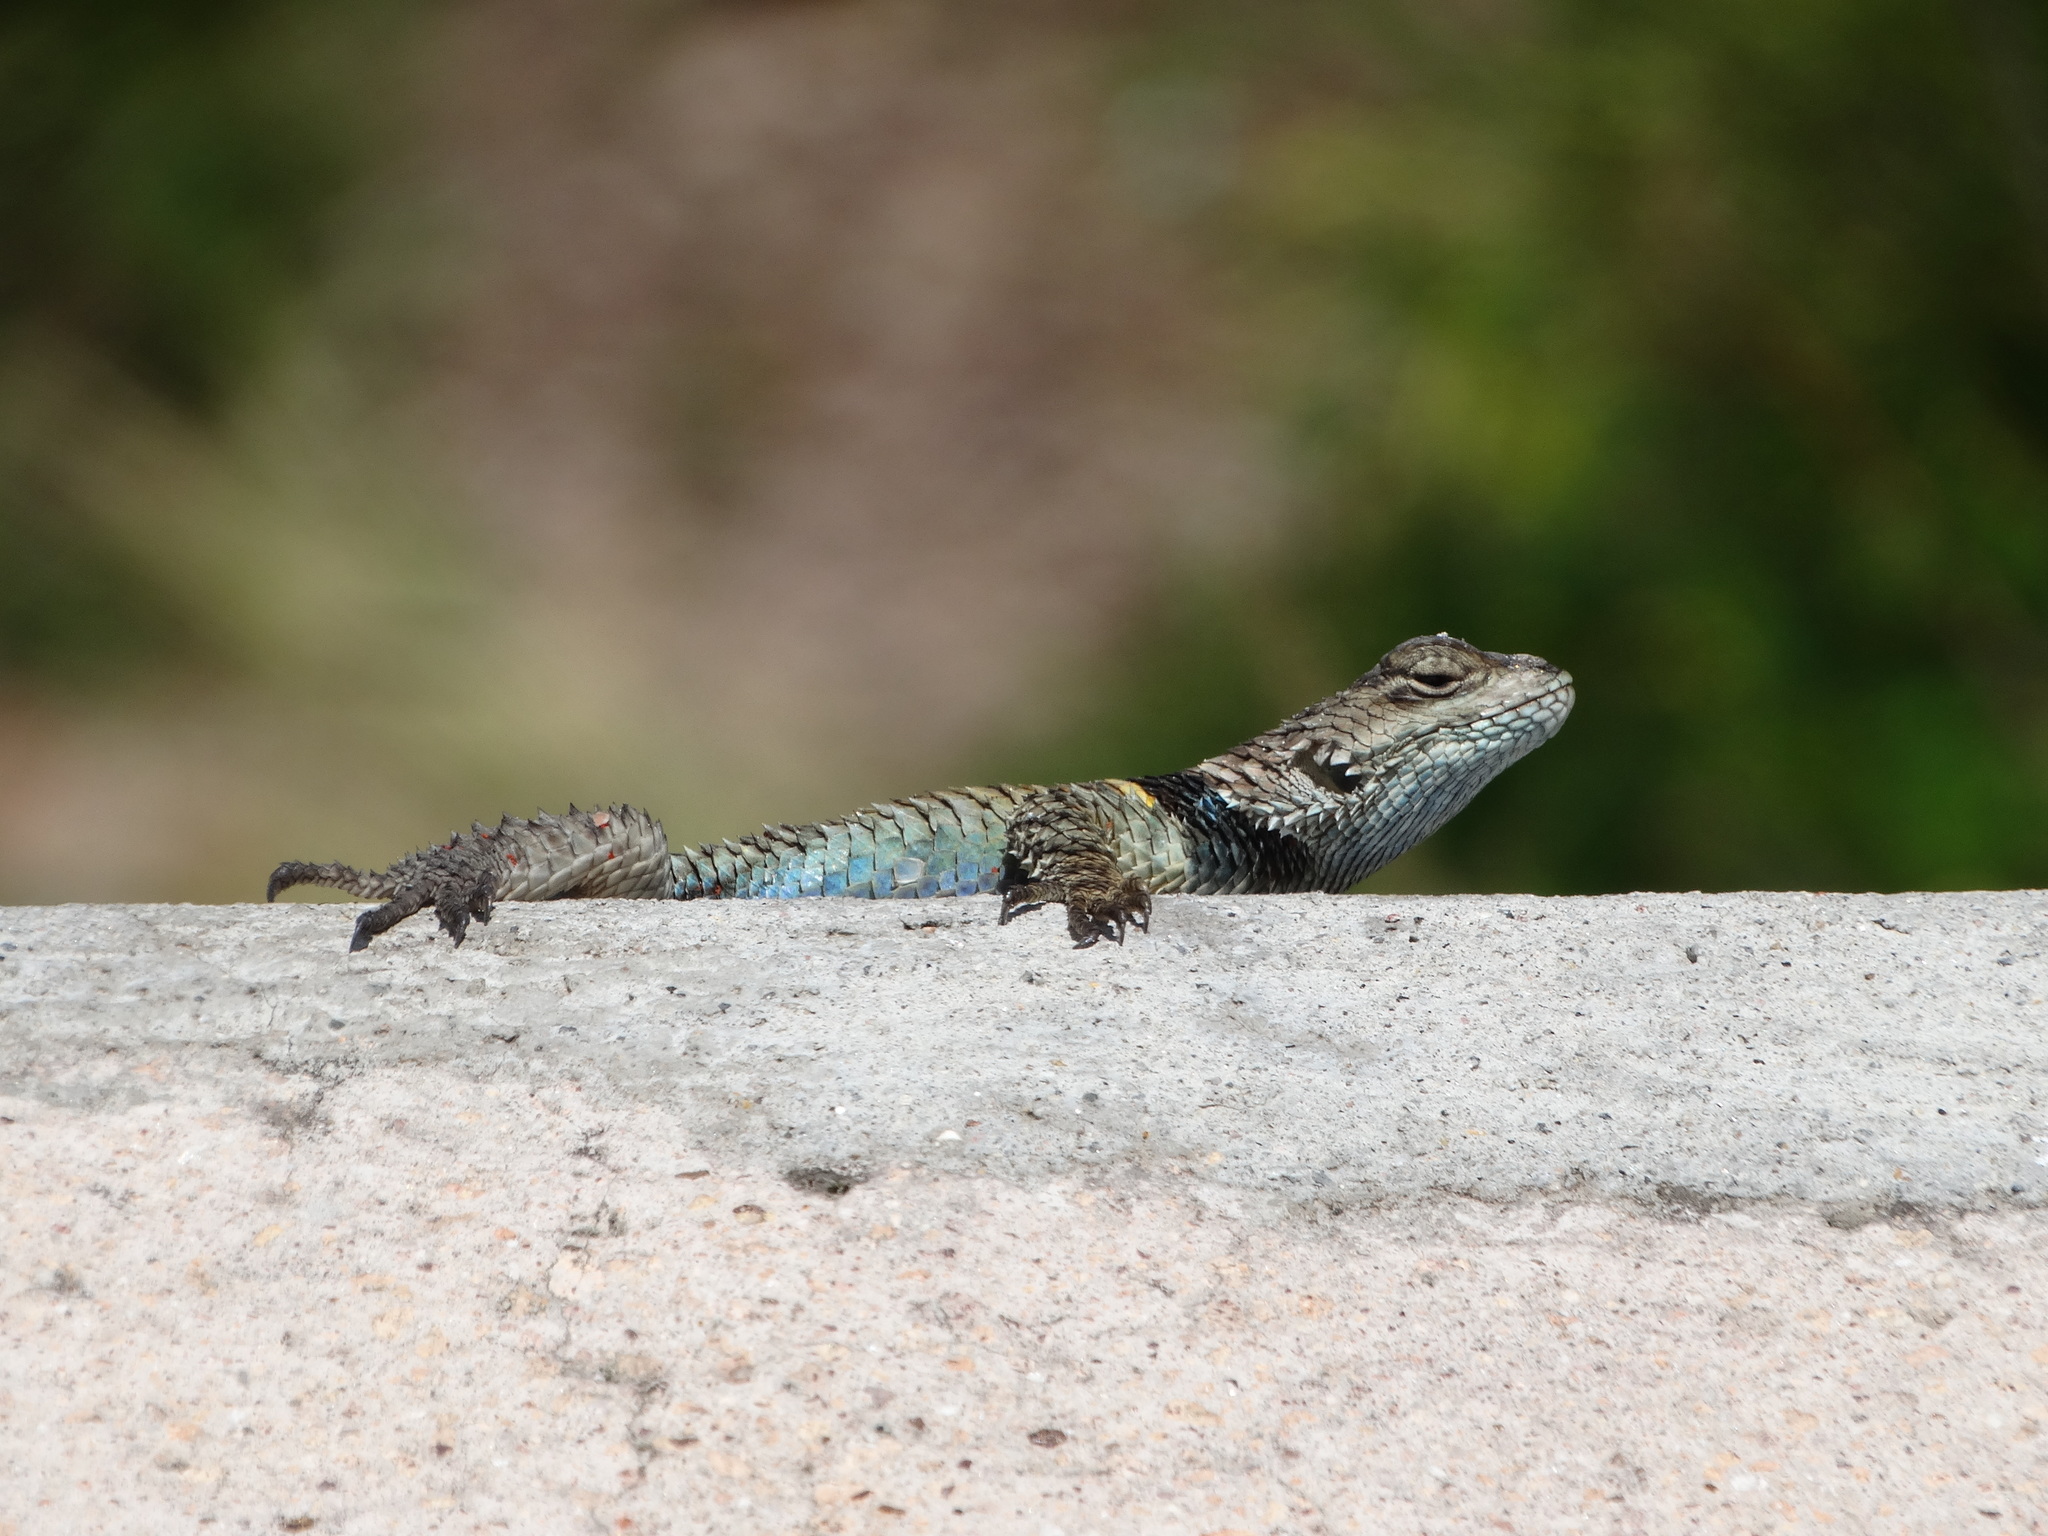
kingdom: Animalia
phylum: Chordata
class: Squamata
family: Phrynosomatidae
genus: Sceloporus
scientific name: Sceloporus torquatus
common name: Central plateau torquate lizard [melanogaster]
